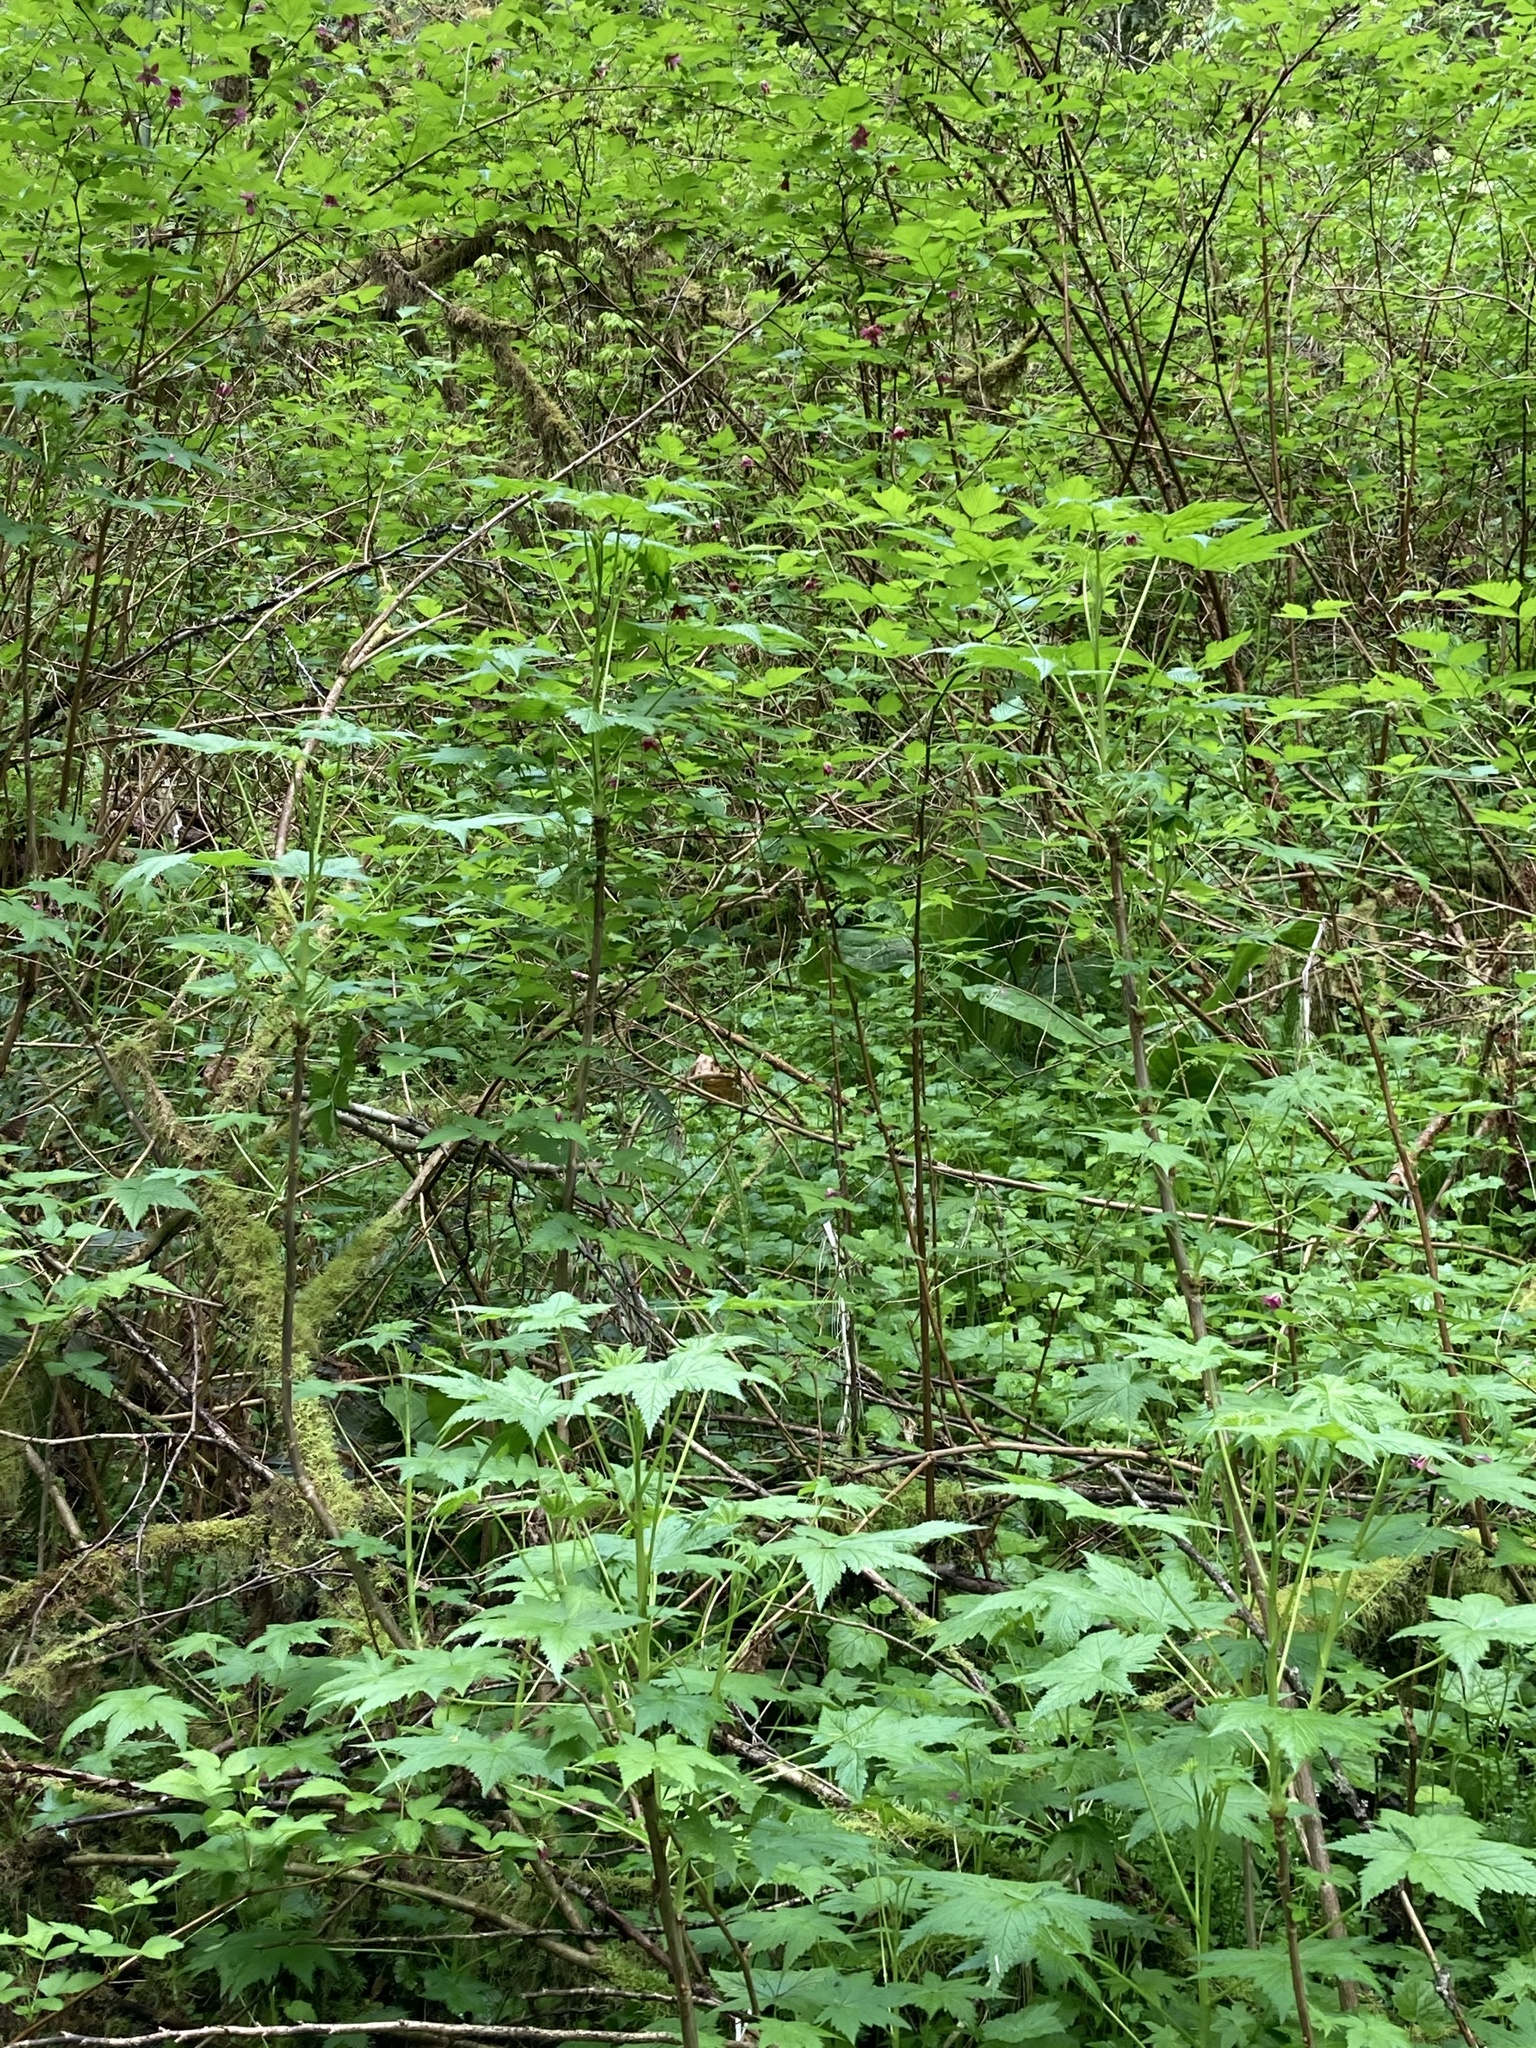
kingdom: Plantae
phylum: Tracheophyta
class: Magnoliopsida
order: Saxifragales
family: Grossulariaceae
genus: Ribes
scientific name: Ribes bracteosum
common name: California black currant
